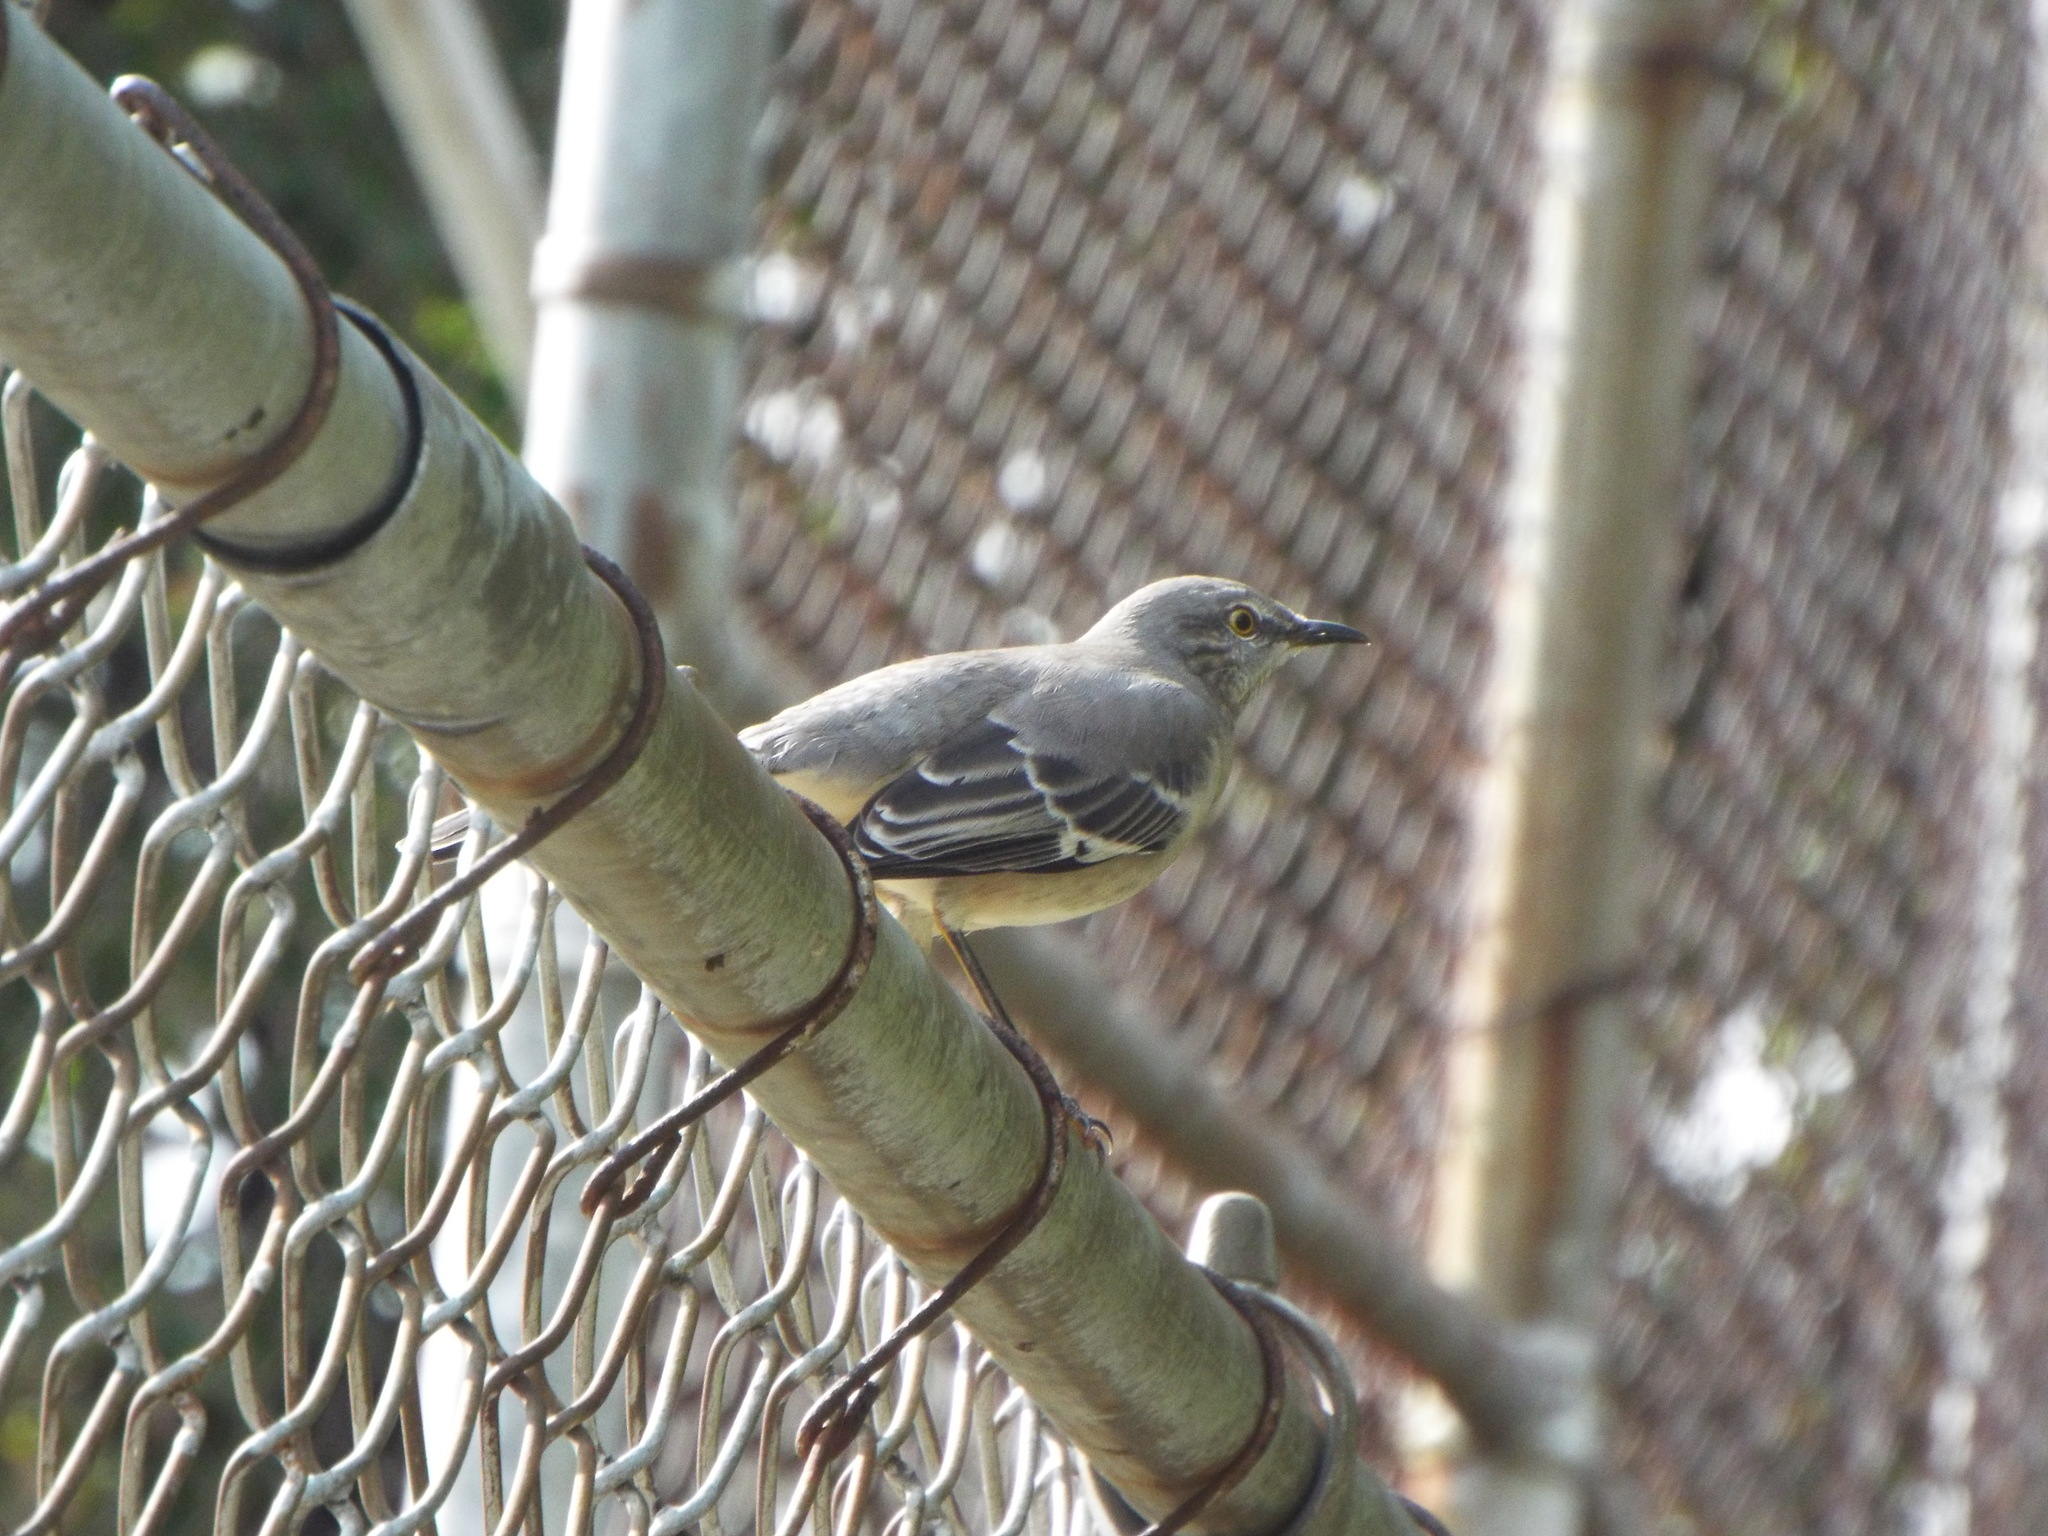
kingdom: Animalia
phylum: Chordata
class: Aves
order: Passeriformes
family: Mimidae
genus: Mimus
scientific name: Mimus polyglottos
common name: Northern mockingbird
